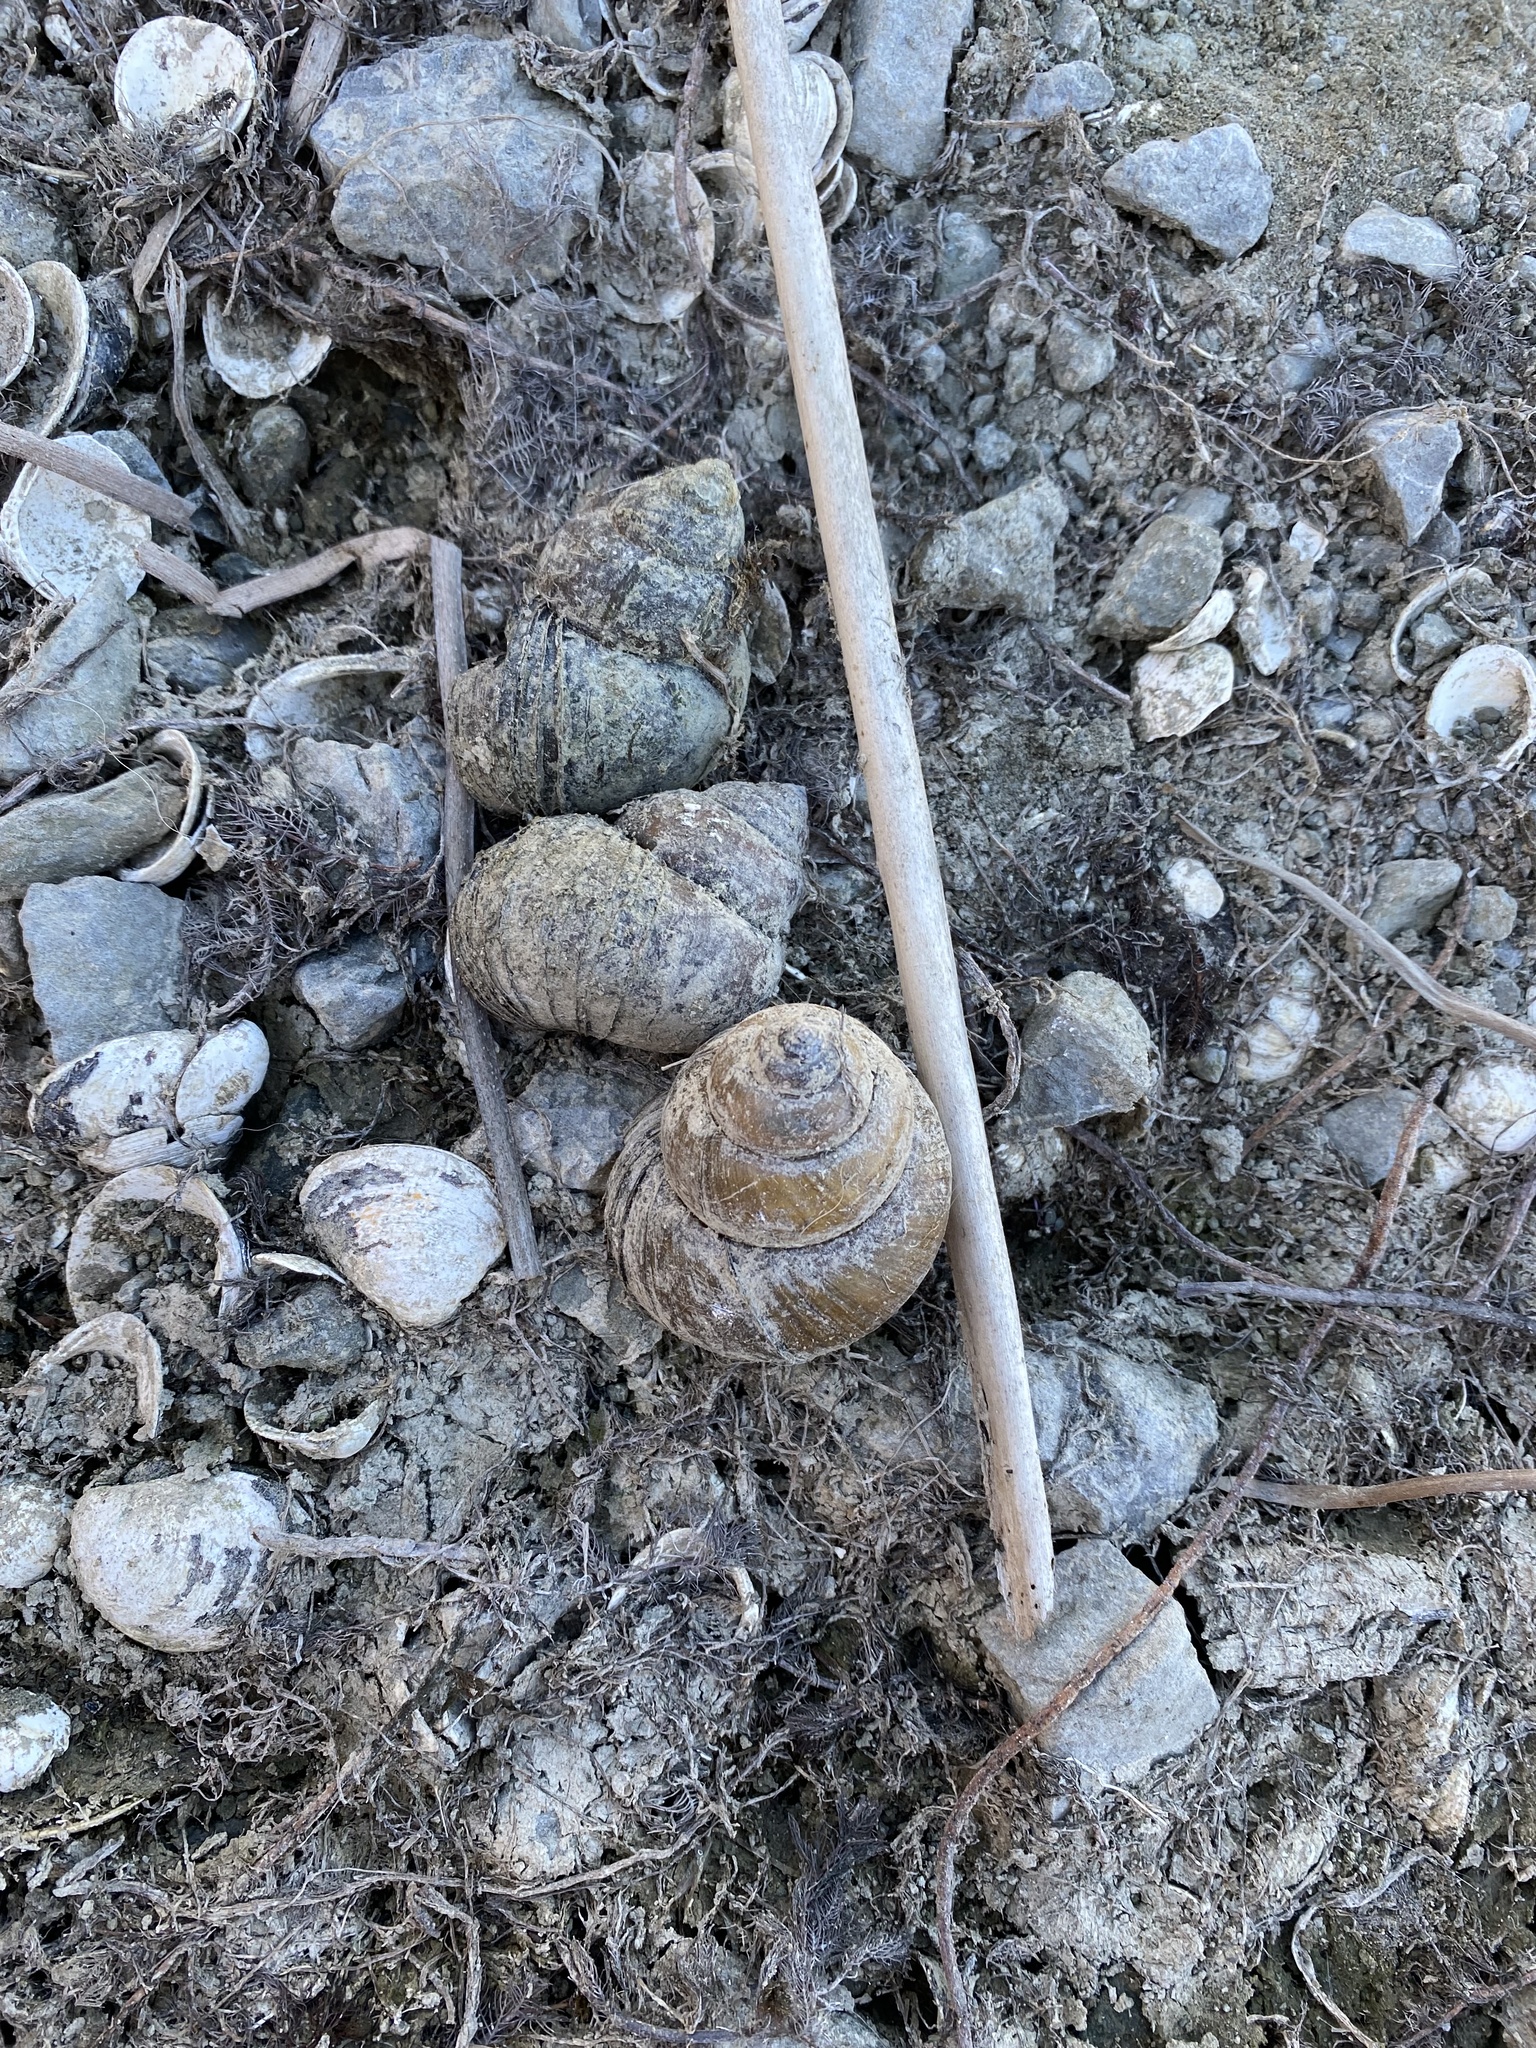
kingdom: Animalia
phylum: Mollusca
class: Gastropoda
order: Architaenioglossa
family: Viviparidae
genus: Cipangopaludina
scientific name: Cipangopaludina chinensis
